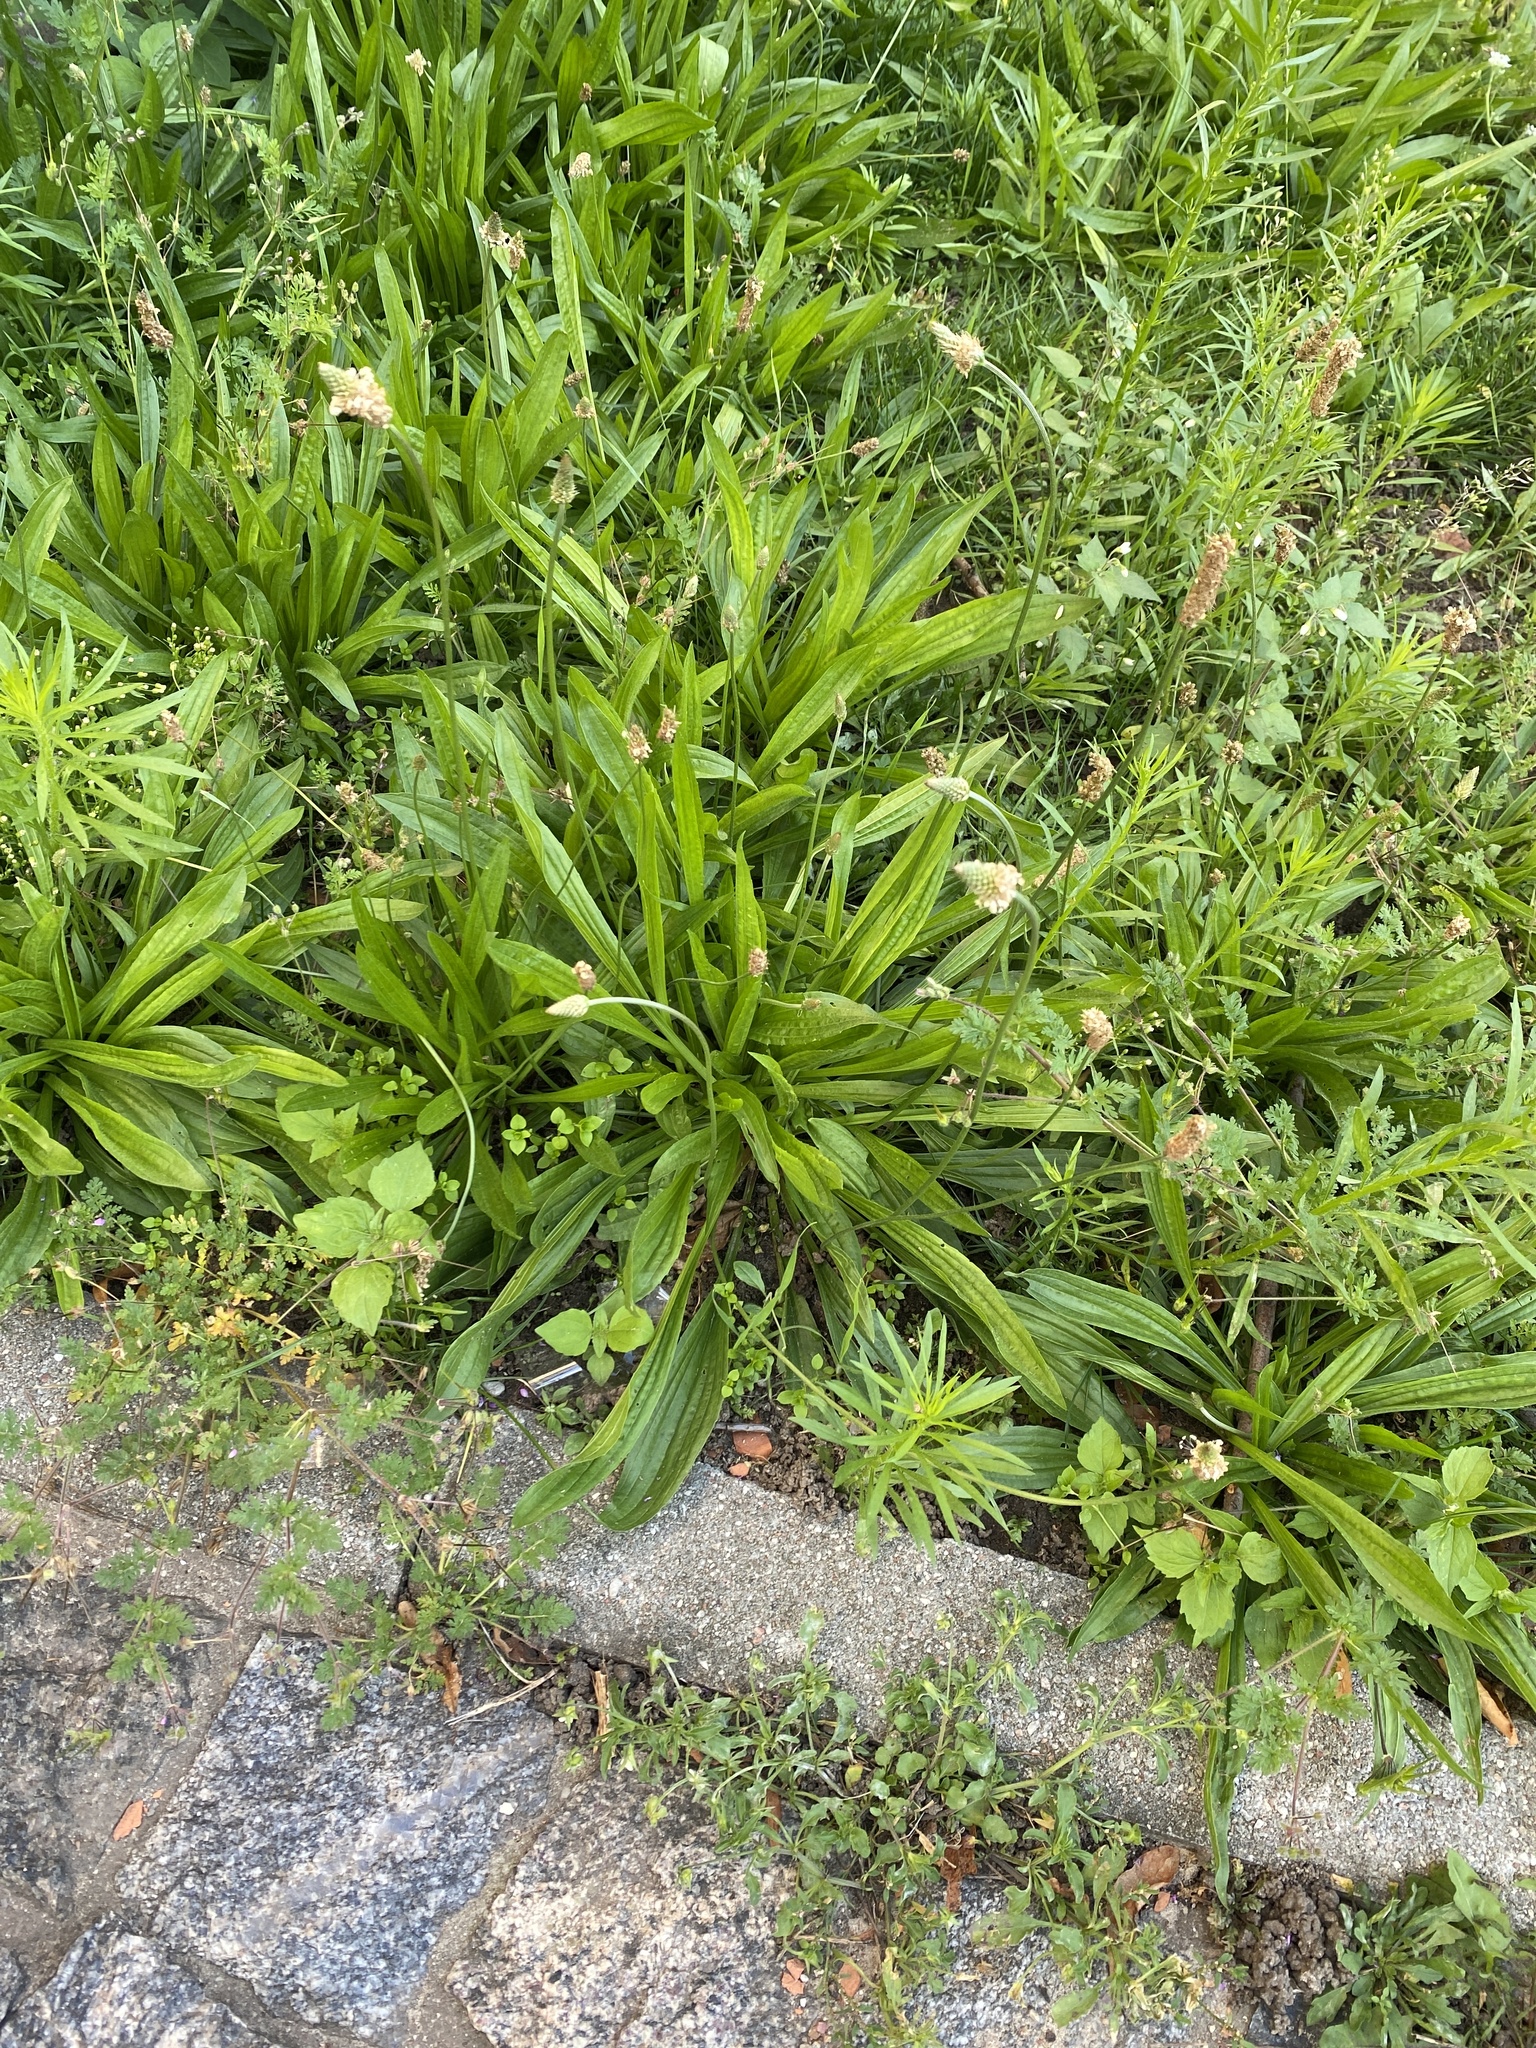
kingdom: Plantae
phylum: Tracheophyta
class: Magnoliopsida
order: Lamiales
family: Plantaginaceae
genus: Plantago
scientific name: Plantago lanceolata
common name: Ribwort plantain
